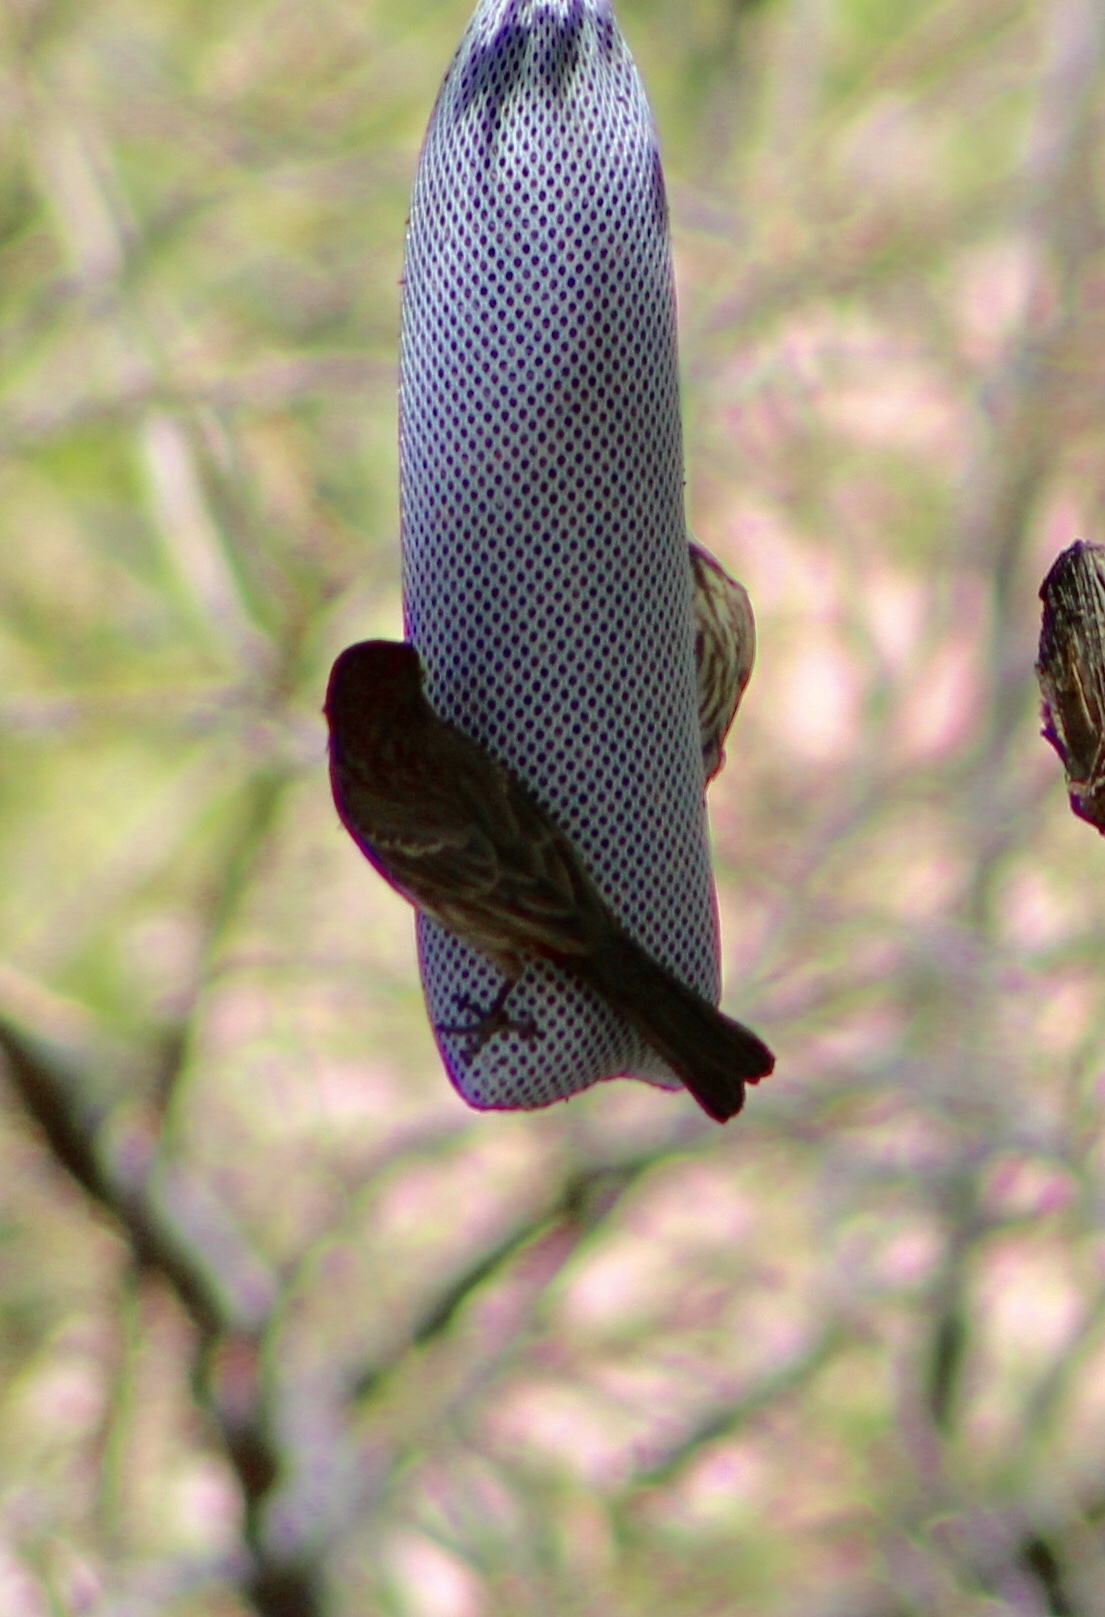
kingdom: Animalia
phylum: Chordata
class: Aves
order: Passeriformes
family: Fringillidae
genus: Haemorhous
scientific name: Haemorhous mexicanus
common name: House finch
